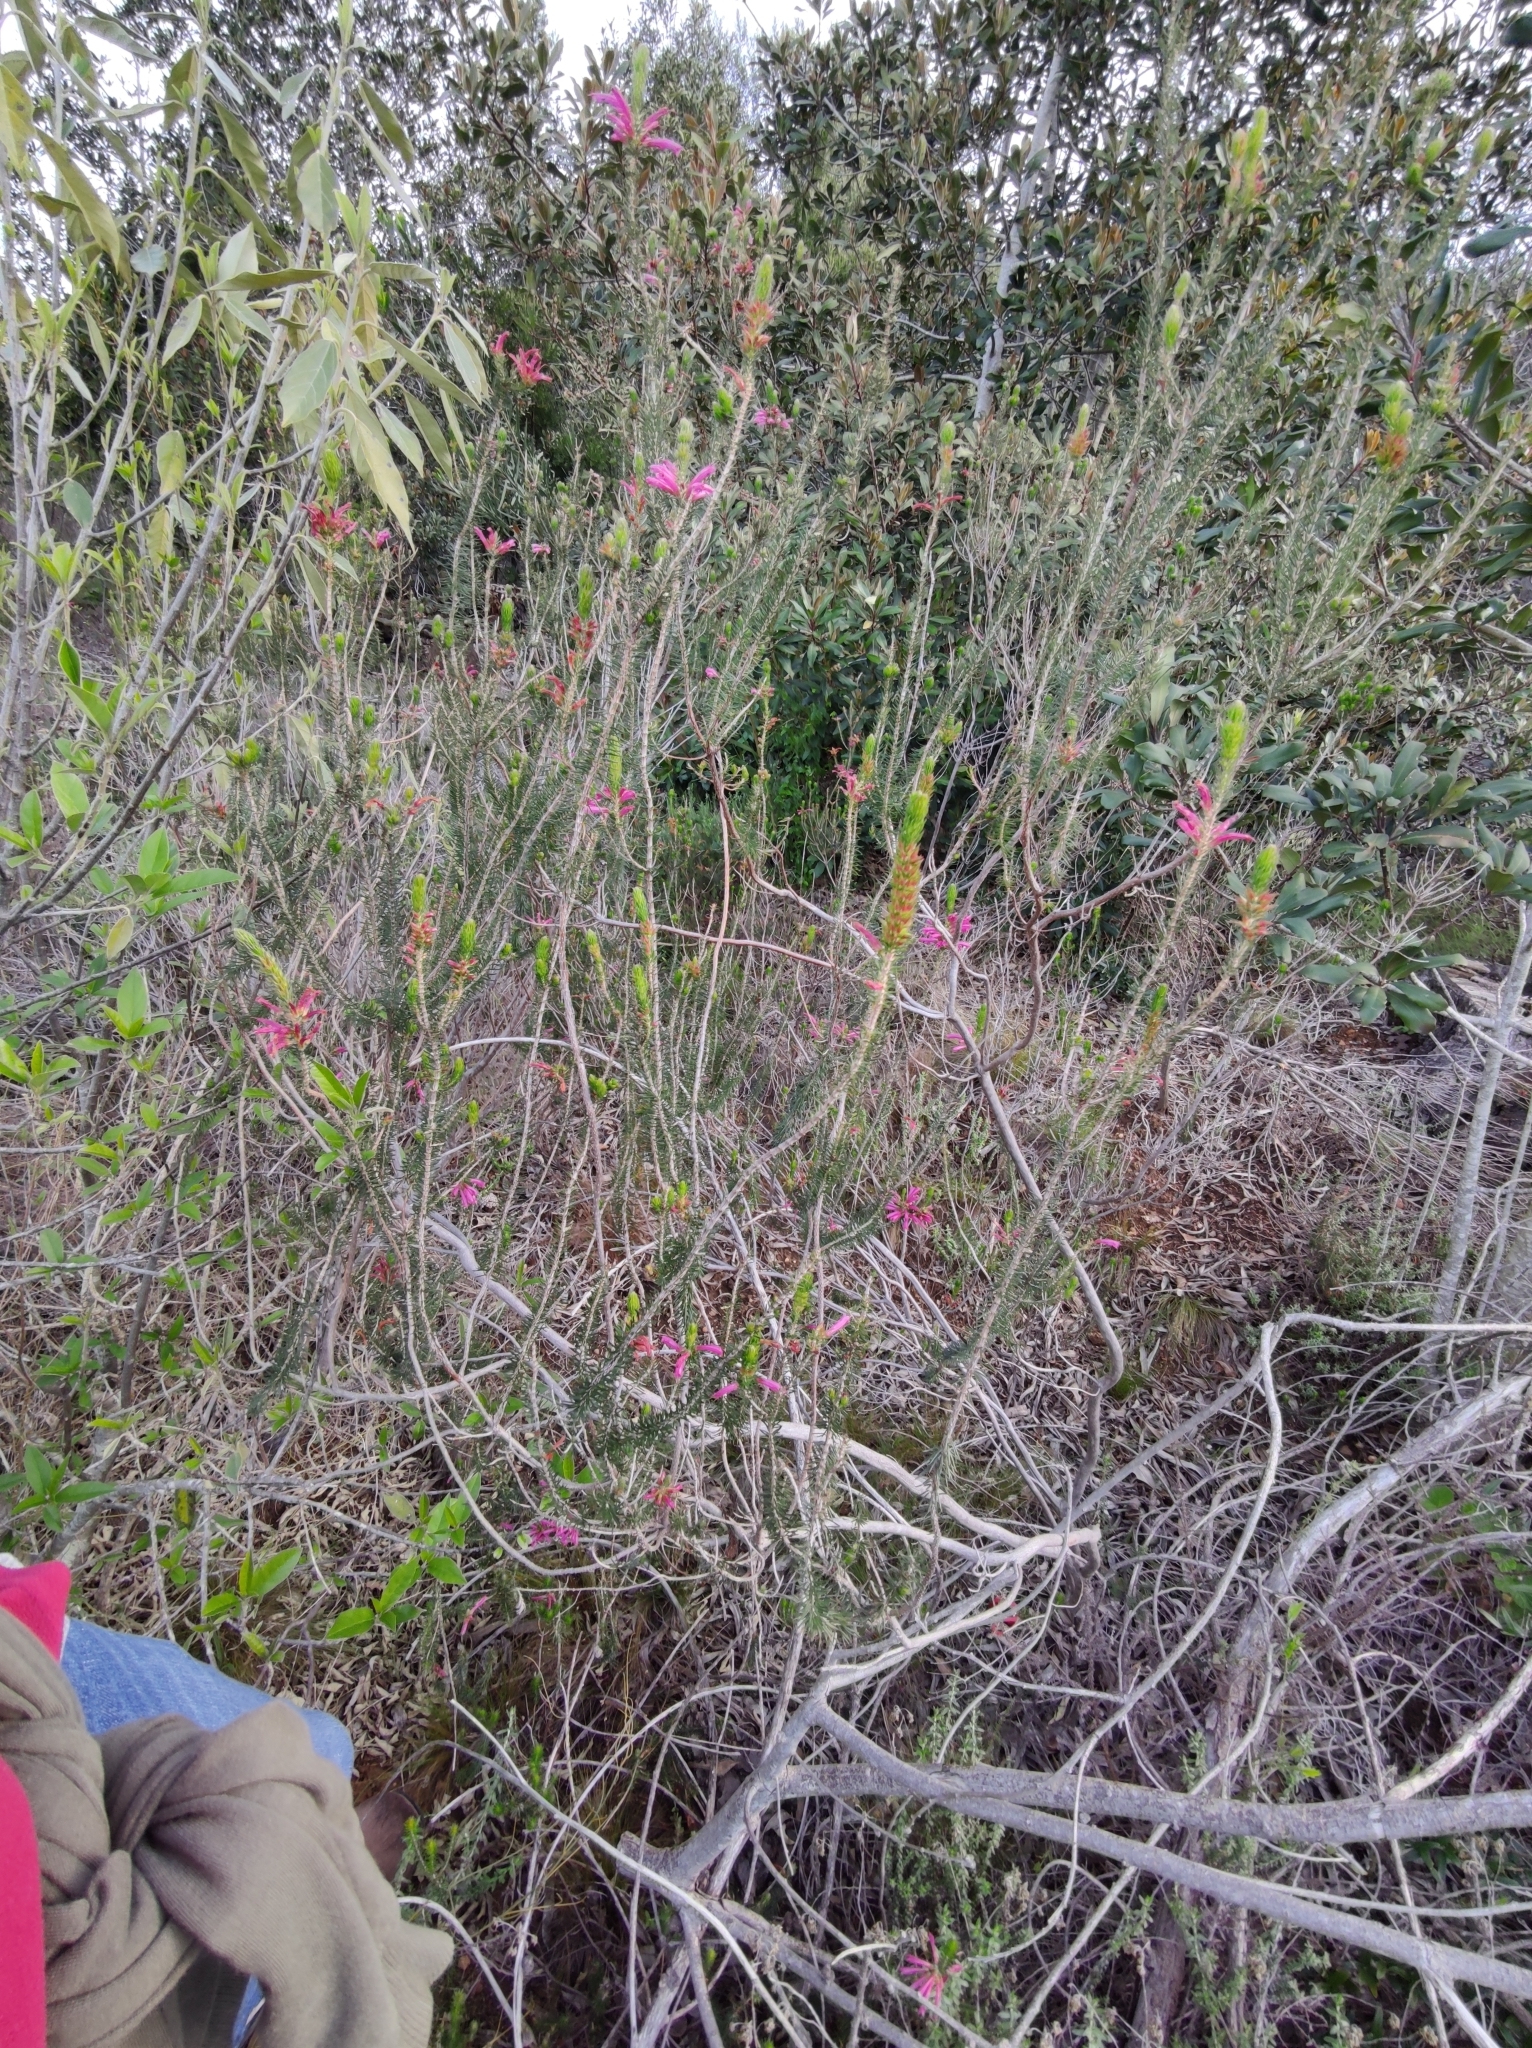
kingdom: Plantae
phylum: Tracheophyta
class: Magnoliopsida
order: Ericales
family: Ericaceae
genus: Erica
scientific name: Erica abietina
